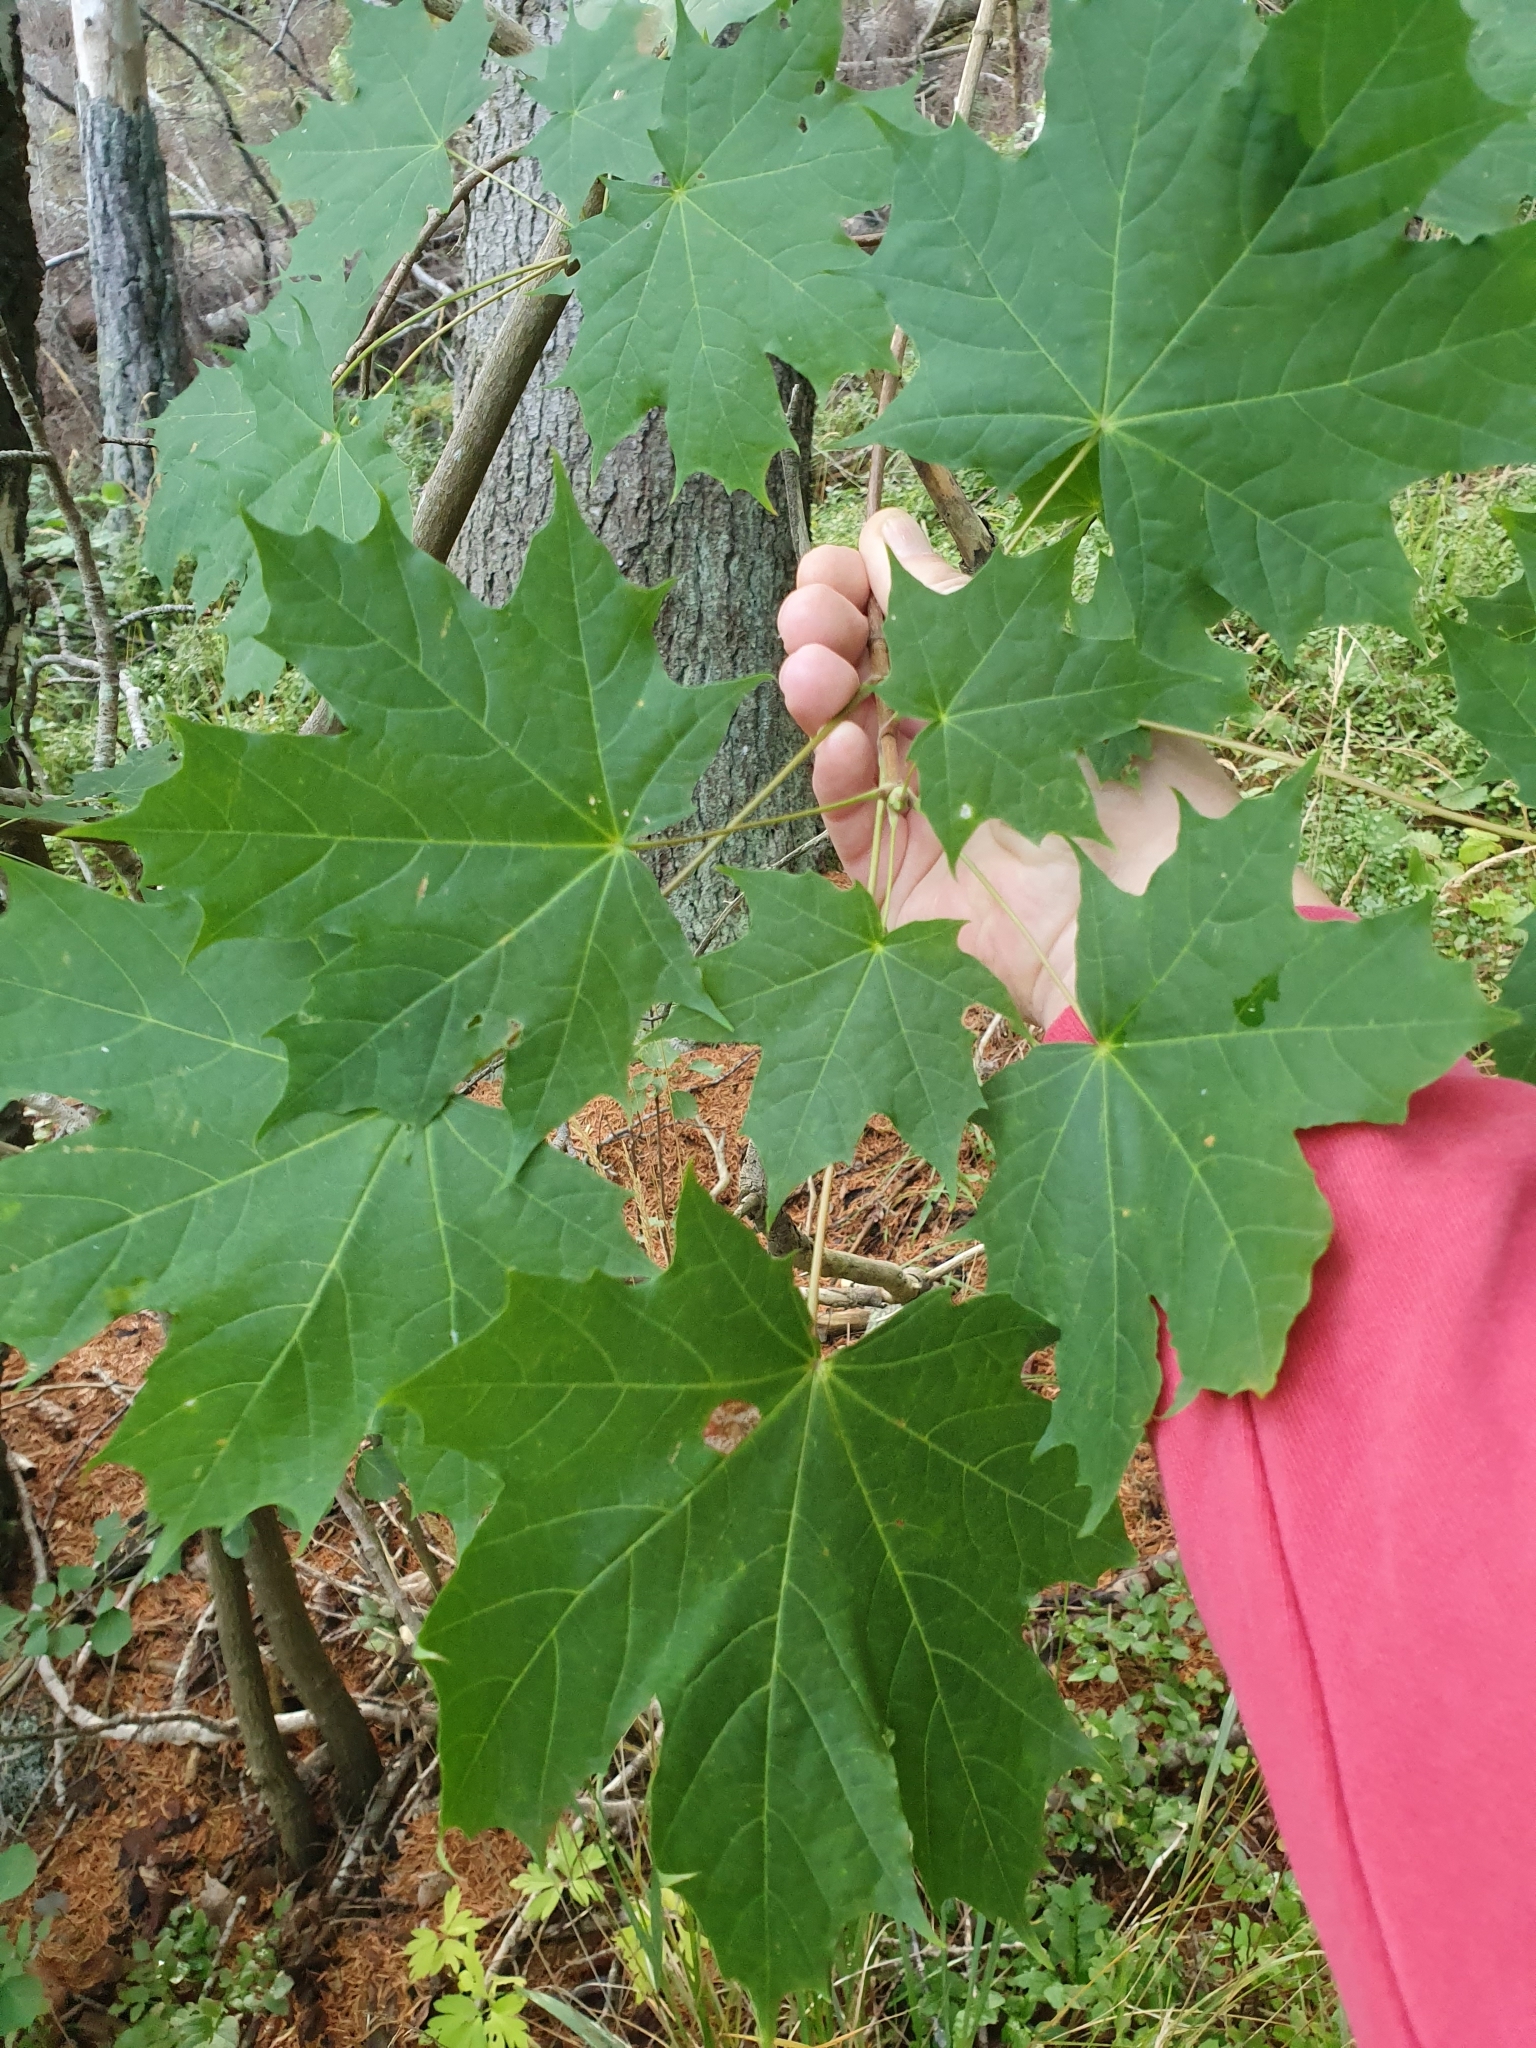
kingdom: Plantae
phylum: Tracheophyta
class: Magnoliopsida
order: Sapindales
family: Sapindaceae
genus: Acer
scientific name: Acer platanoides
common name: Norway maple
